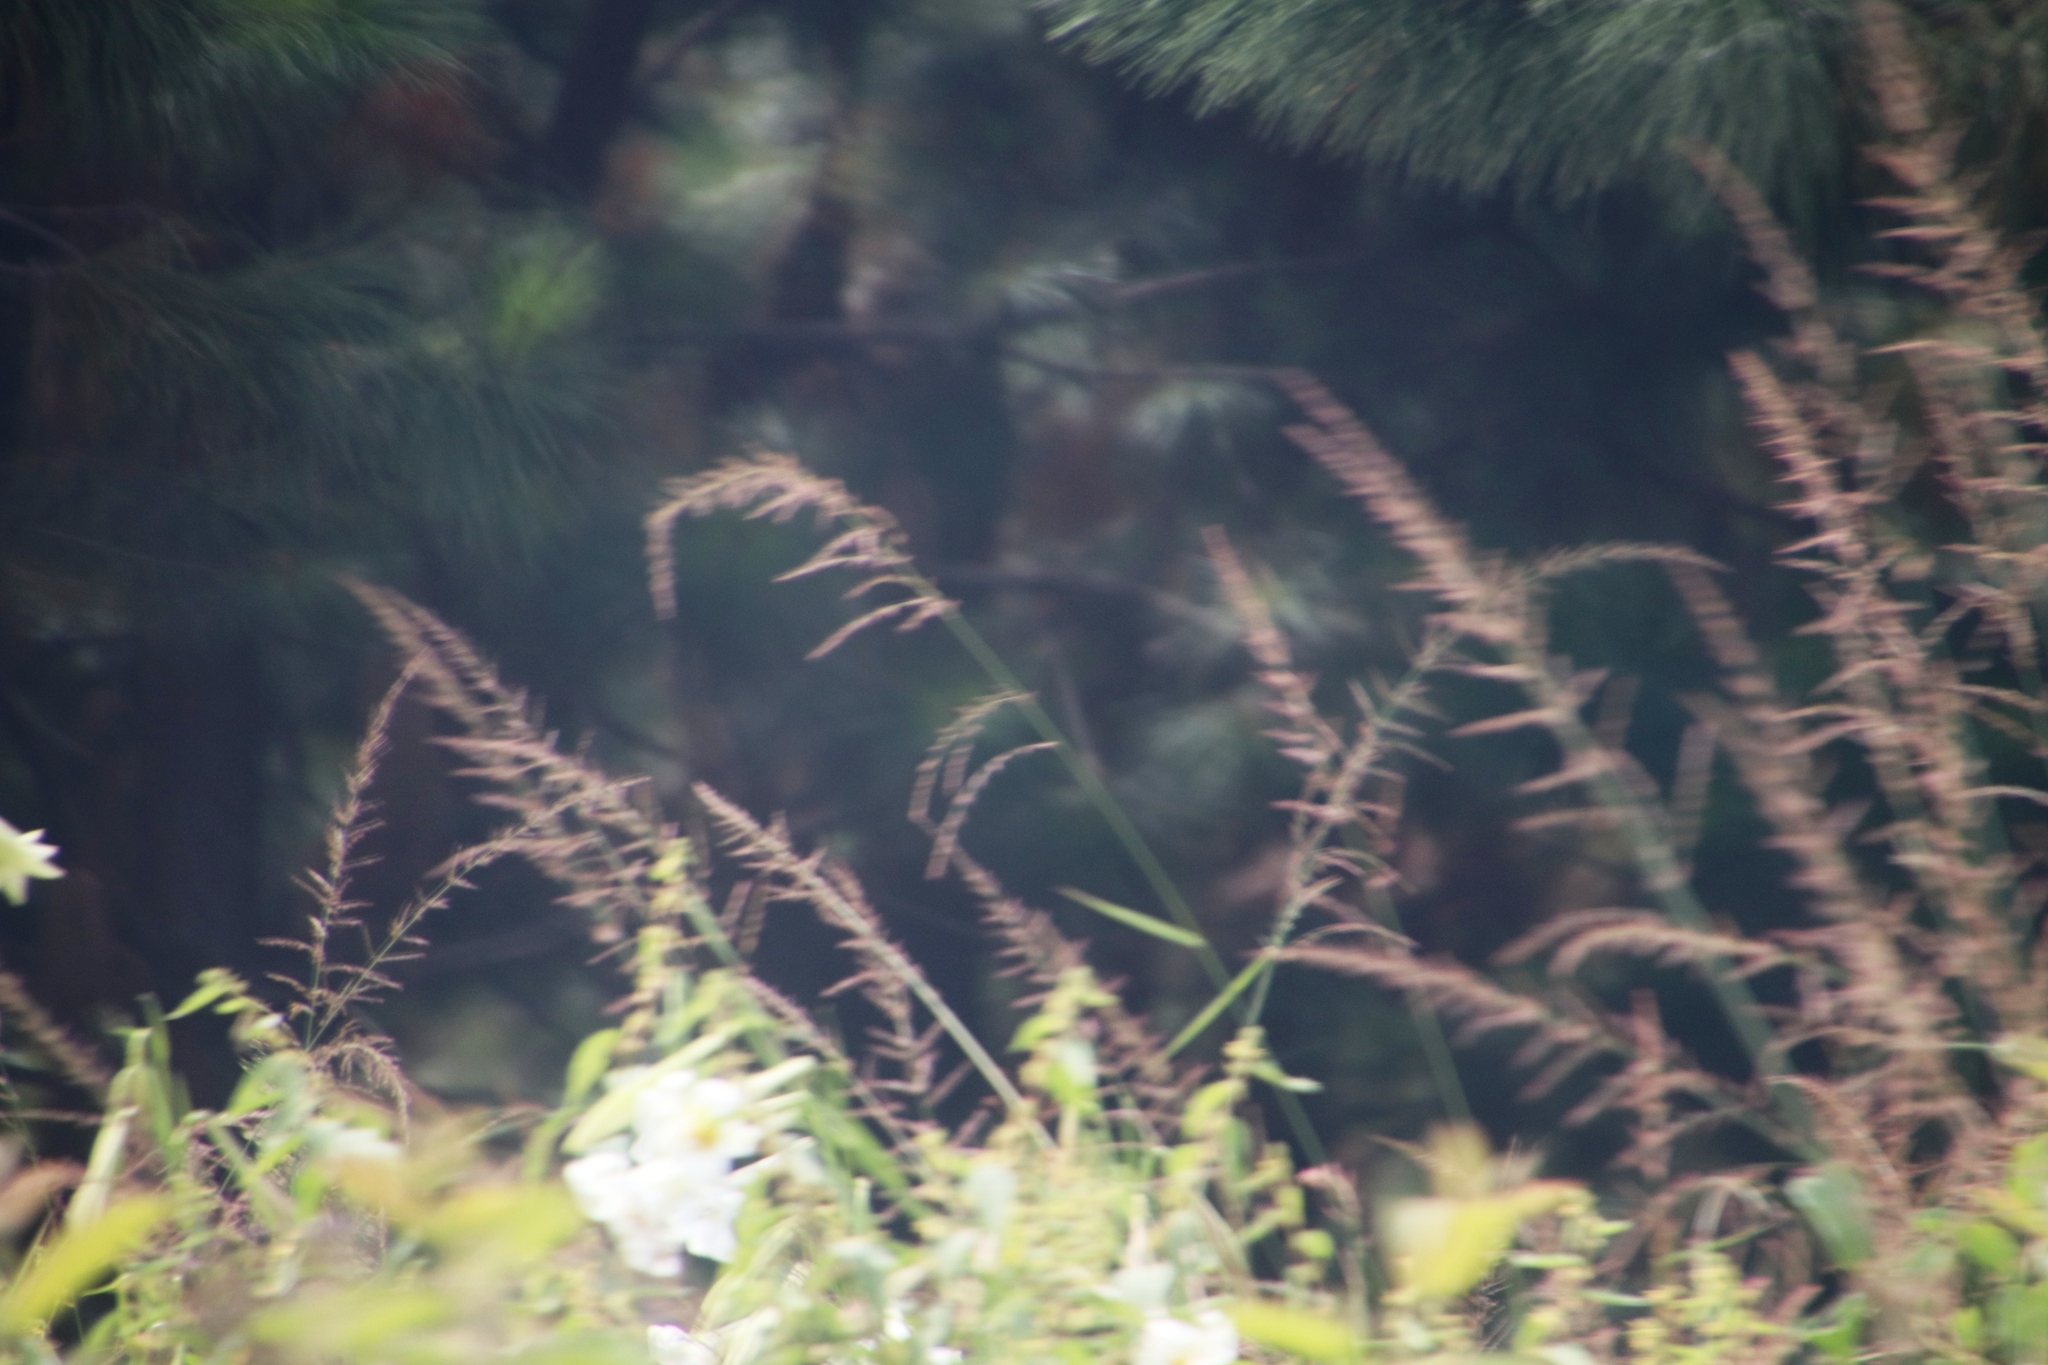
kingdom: Plantae
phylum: Tracheophyta
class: Liliopsida
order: Liliales
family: Liliaceae
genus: Lilium
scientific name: Lilium formosanum
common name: Formosa lily
